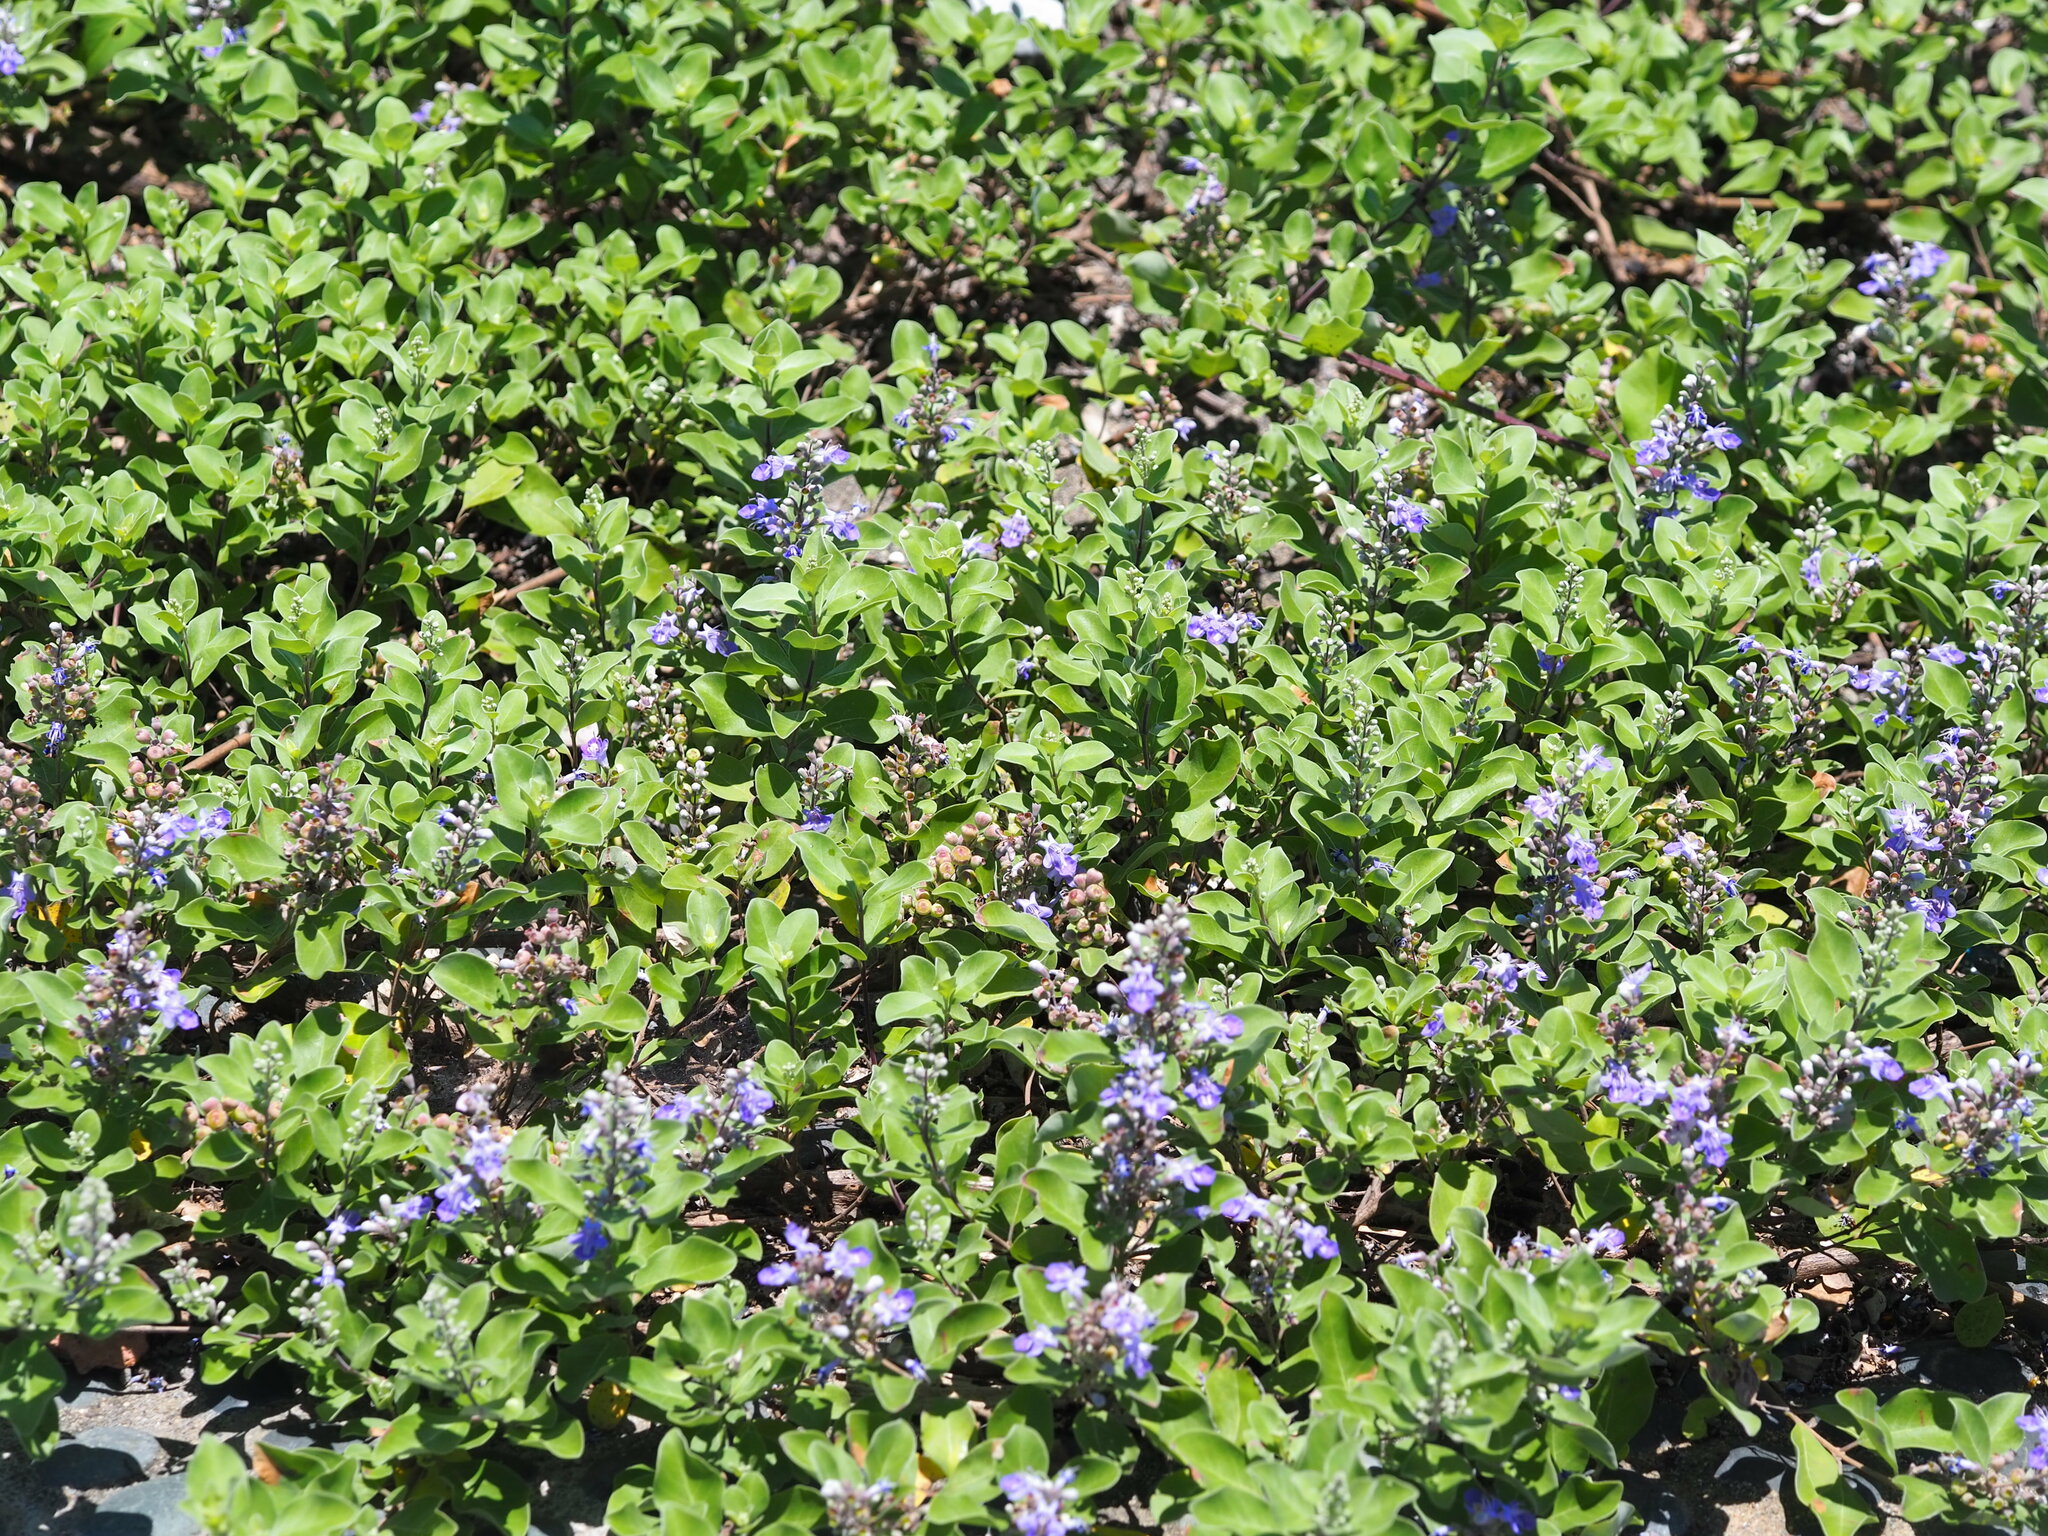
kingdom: Plantae
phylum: Tracheophyta
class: Magnoliopsida
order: Lamiales
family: Lamiaceae
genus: Vitex
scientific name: Vitex rotundifolia
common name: Beach vitex
